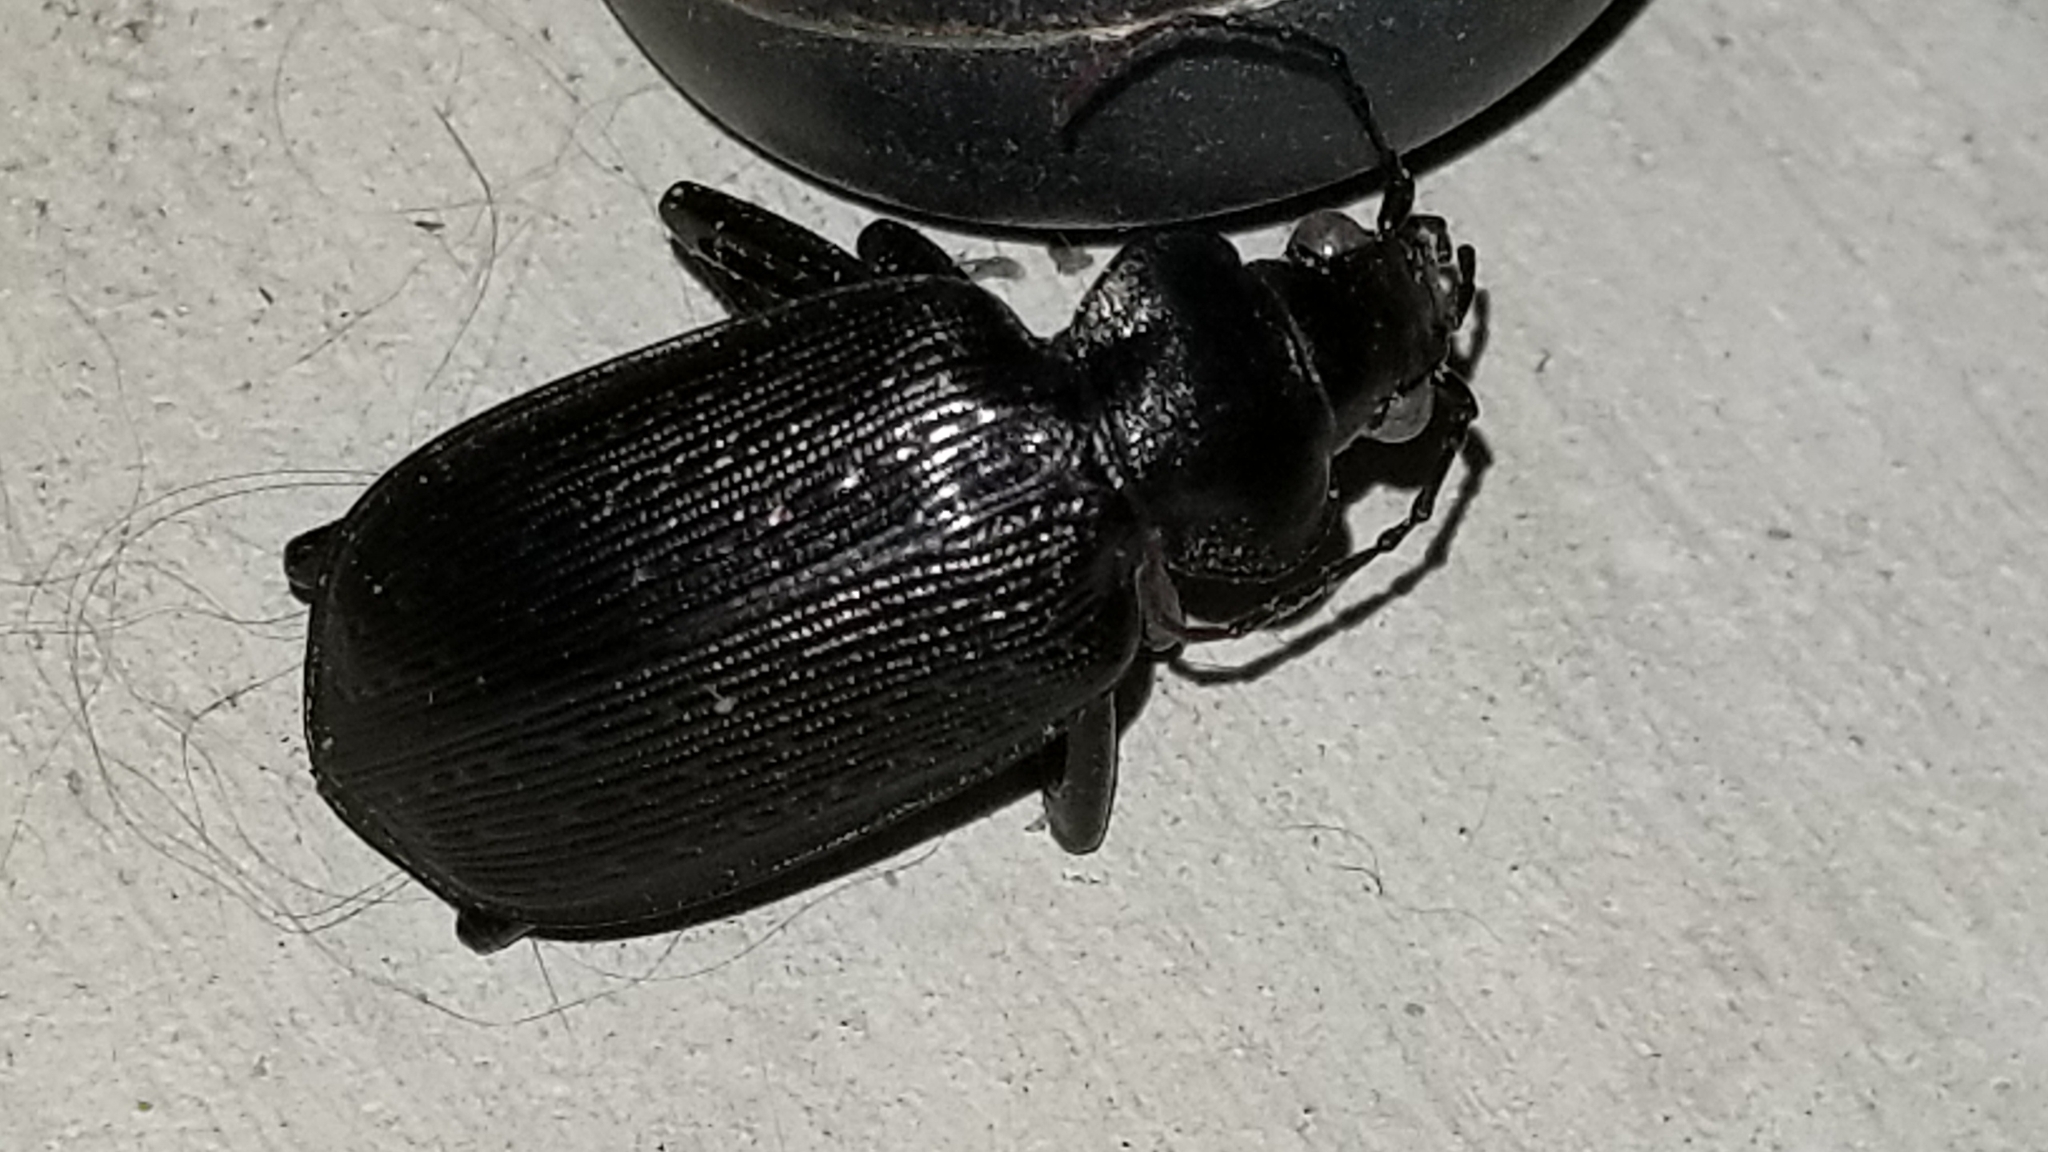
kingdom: Animalia
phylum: Arthropoda
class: Insecta
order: Coleoptera
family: Carabidae
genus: Calosoma
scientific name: Calosoma sayi
